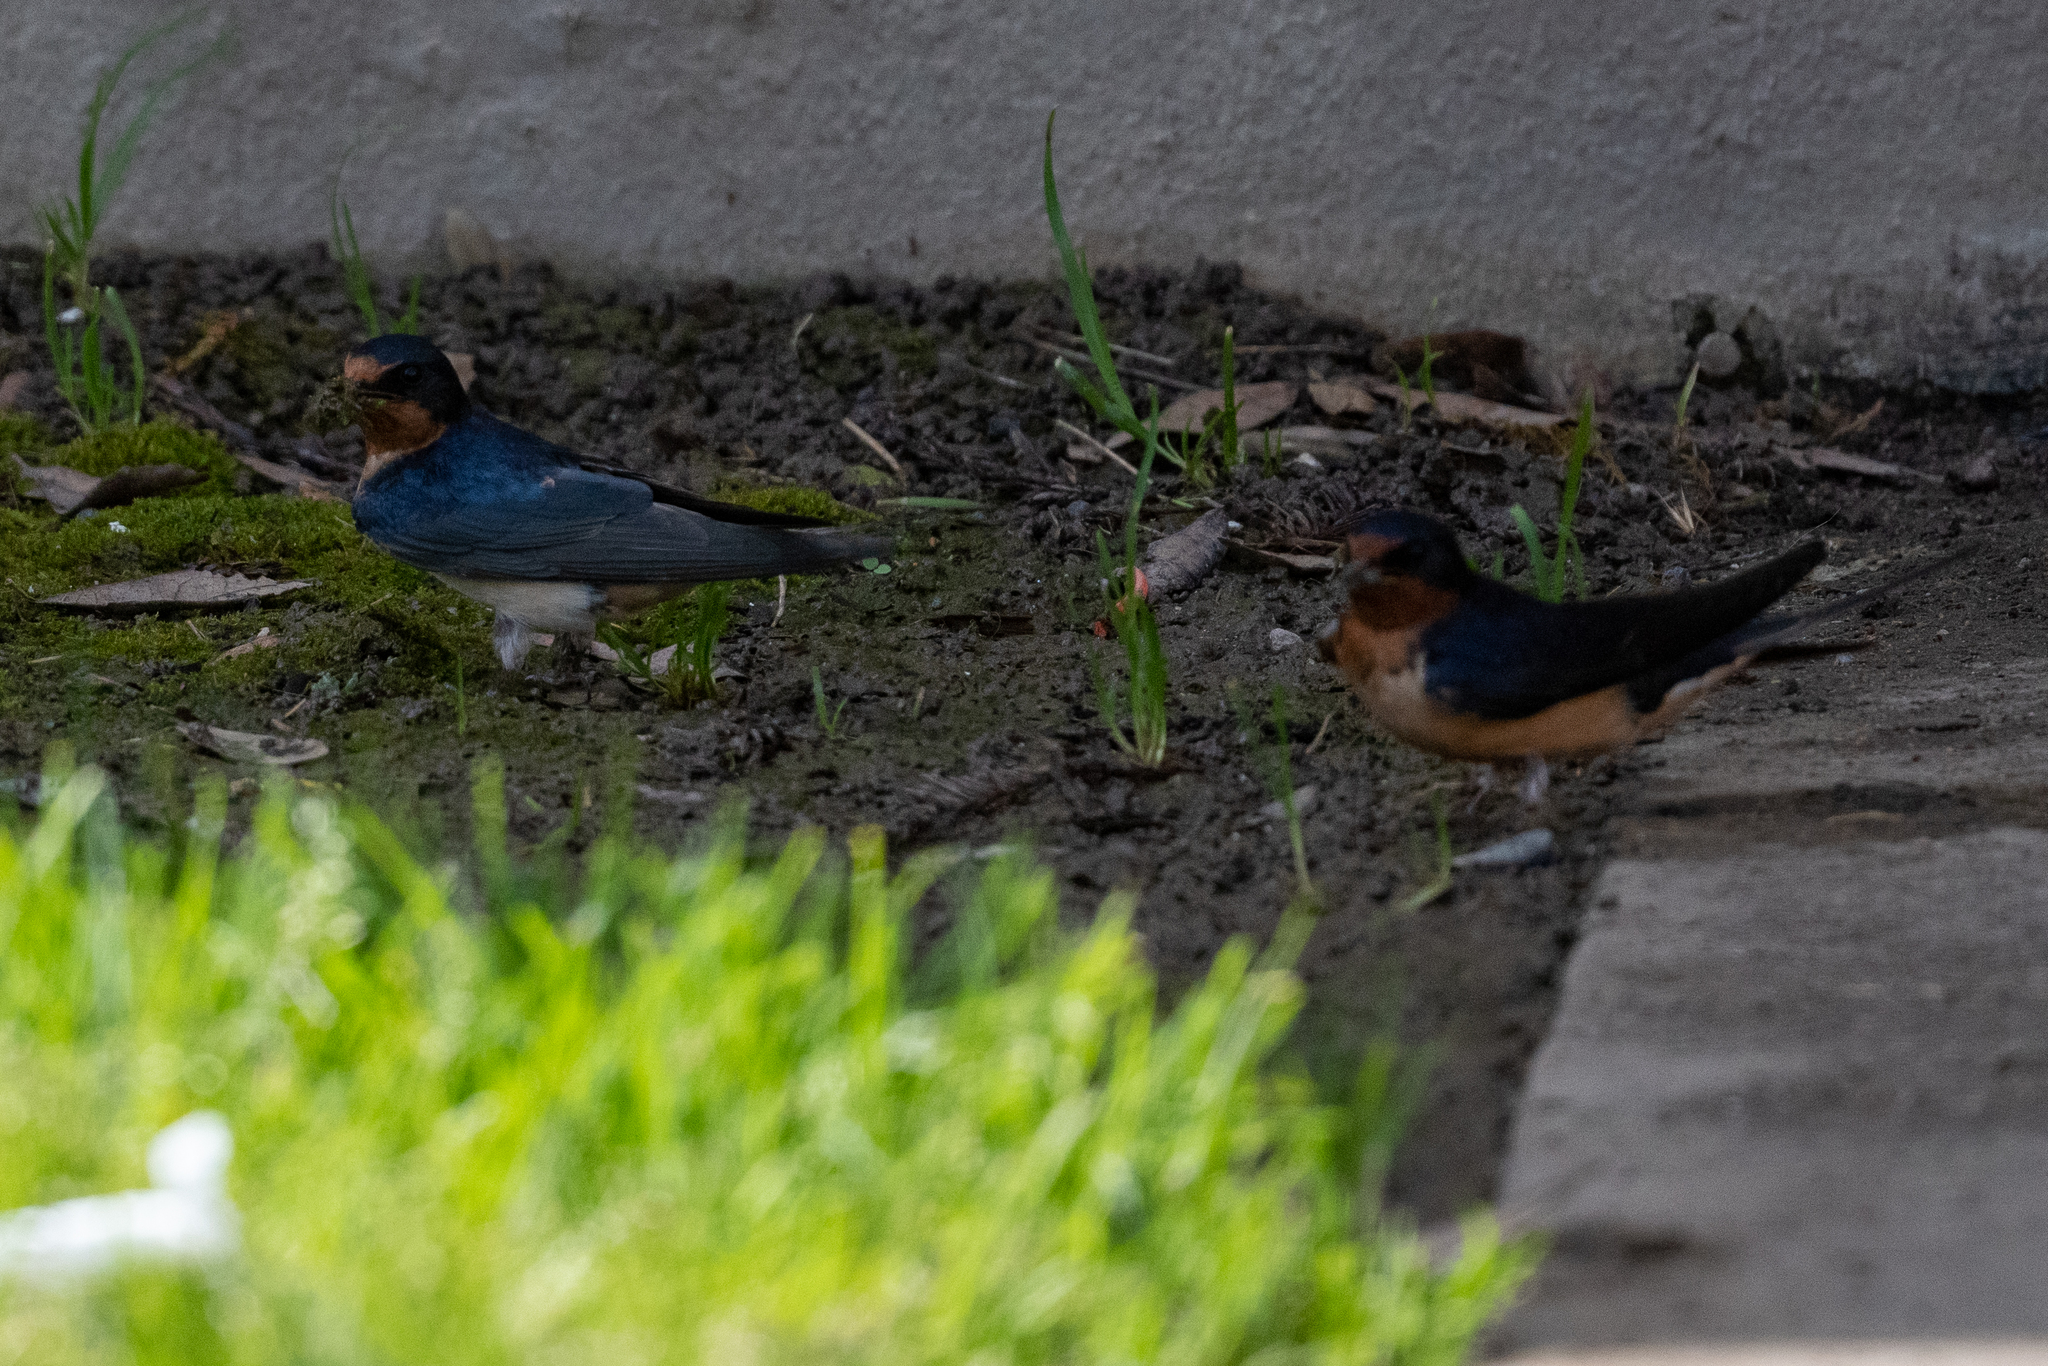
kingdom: Animalia
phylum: Chordata
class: Aves
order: Passeriformes
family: Hirundinidae
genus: Hirundo
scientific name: Hirundo rustica
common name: Barn swallow
